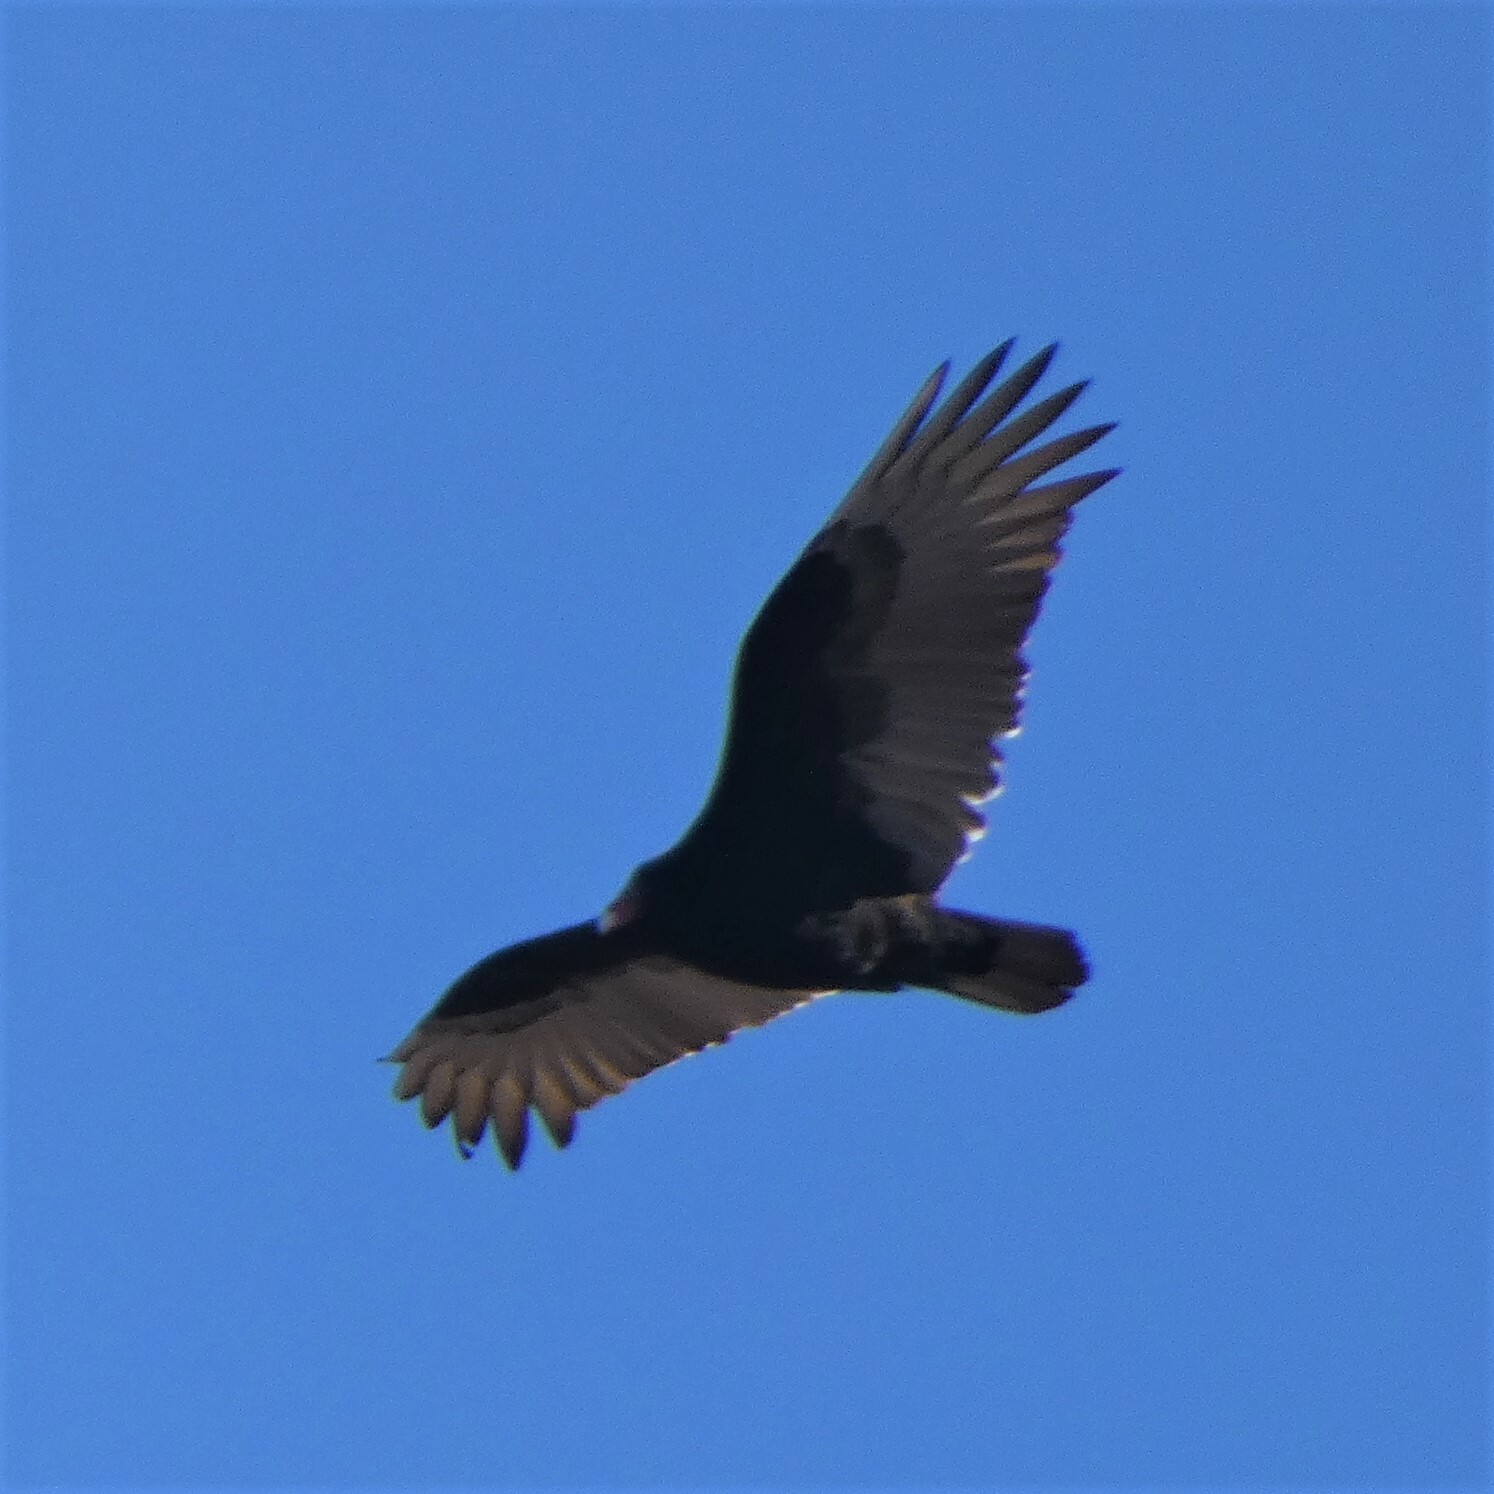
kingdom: Animalia
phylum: Chordata
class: Aves
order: Accipitriformes
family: Cathartidae
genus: Cathartes
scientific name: Cathartes aura
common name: Turkey vulture
